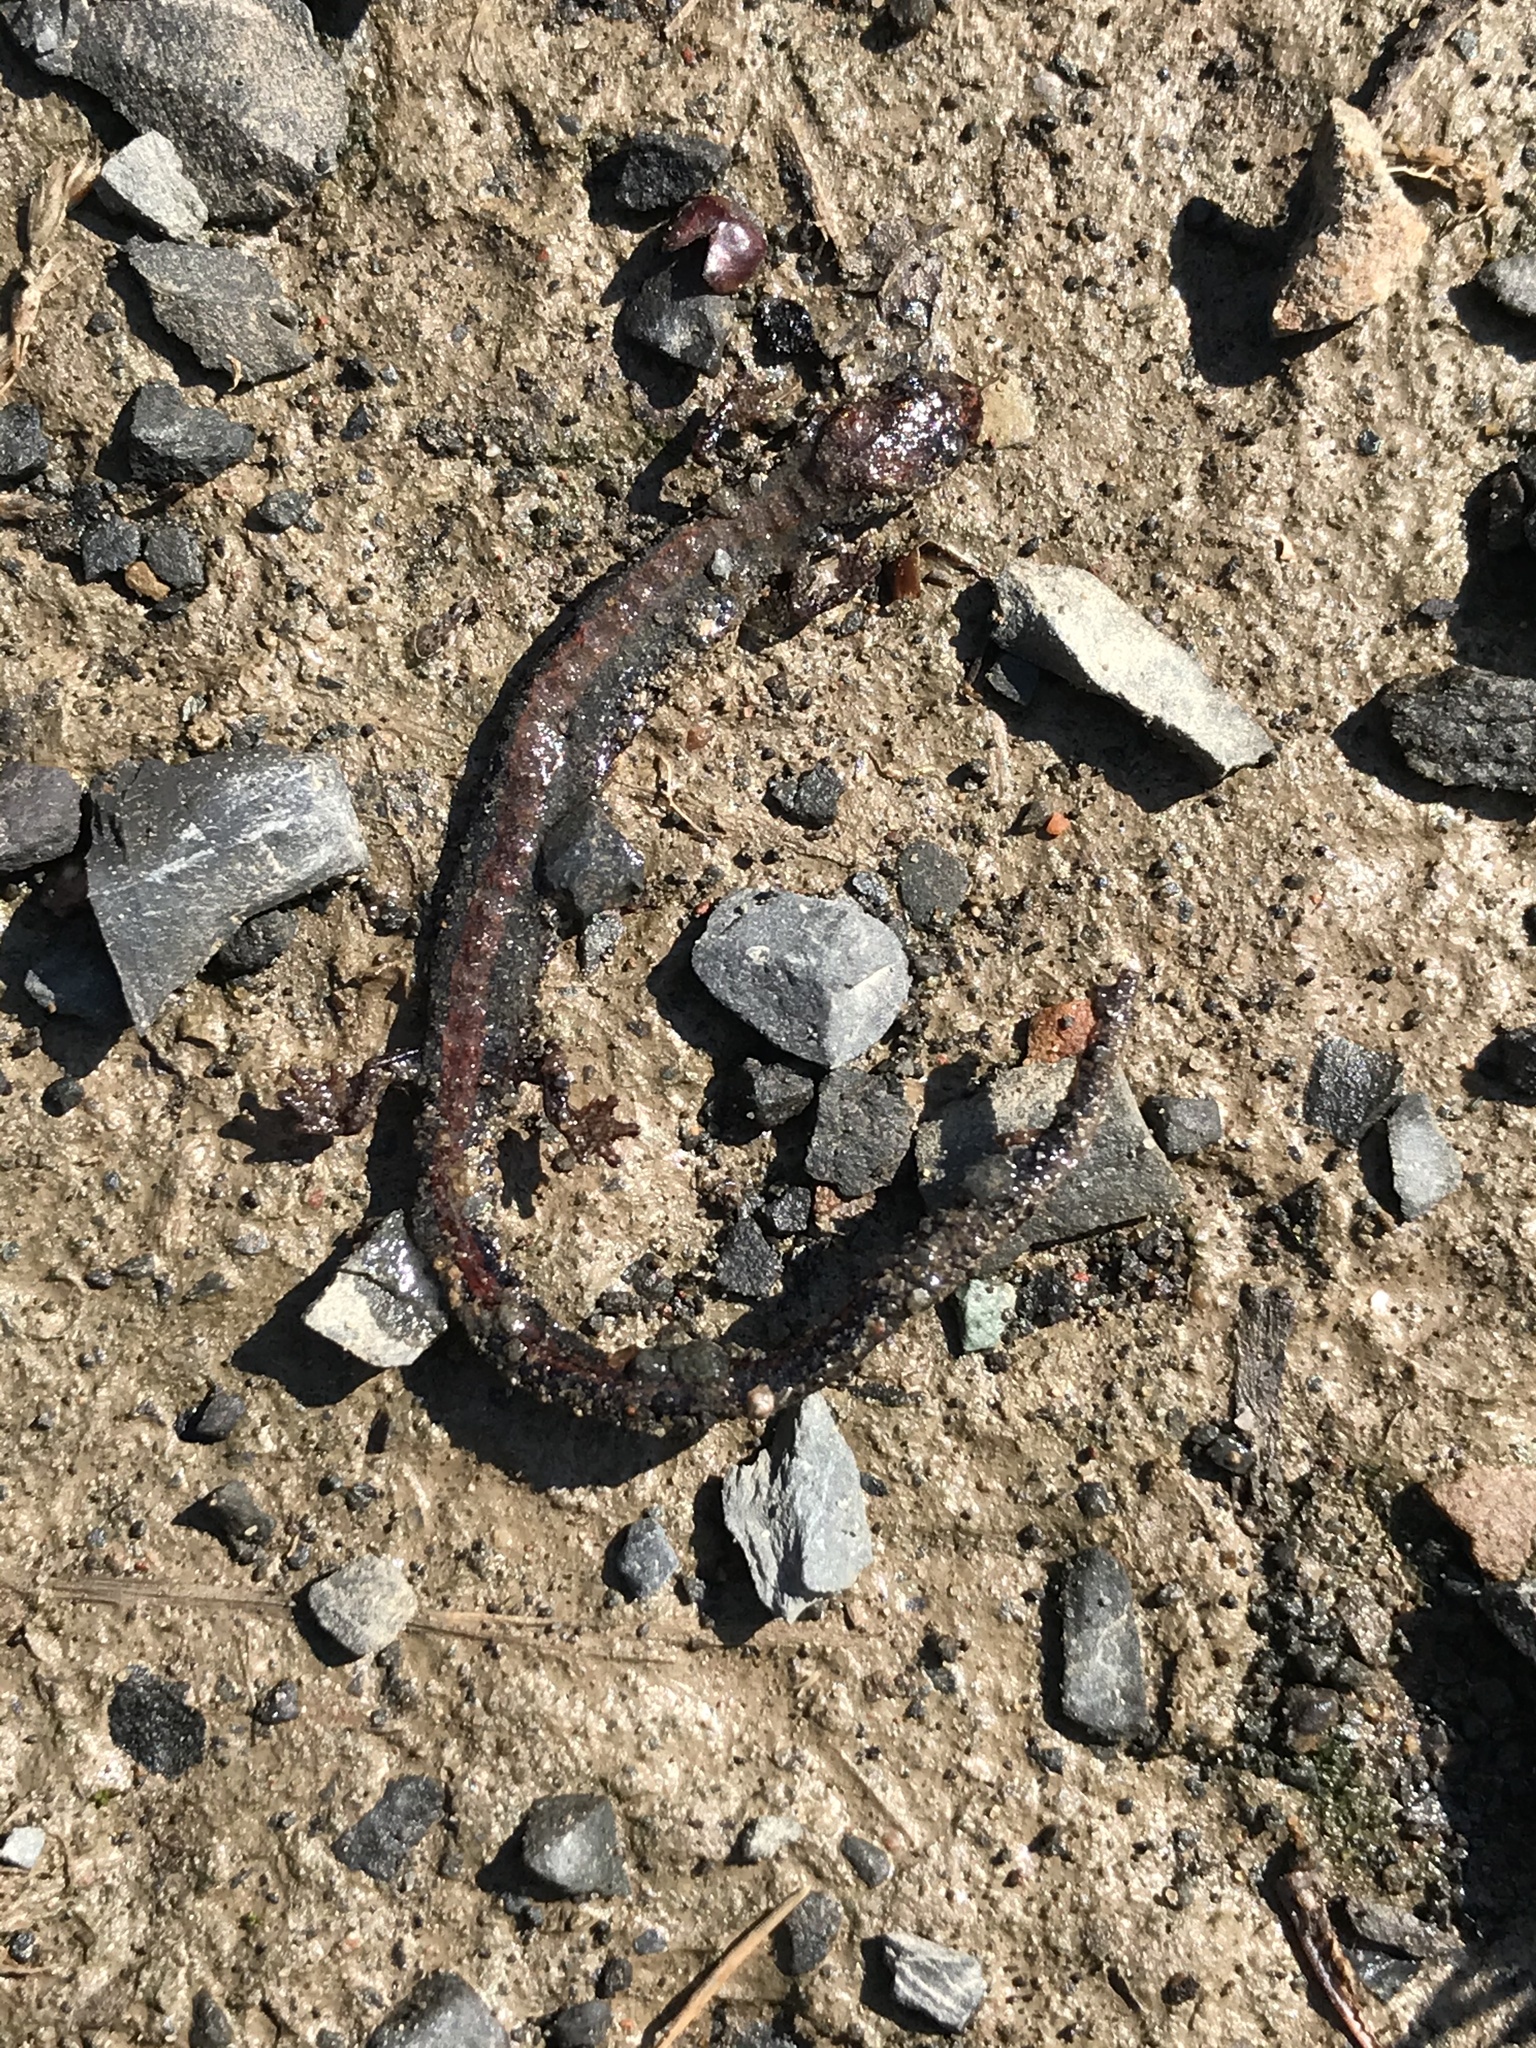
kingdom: Animalia
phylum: Chordata
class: Amphibia
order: Caudata
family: Plethodontidae
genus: Plethodon
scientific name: Plethodon cinereus
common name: Redback salamander
